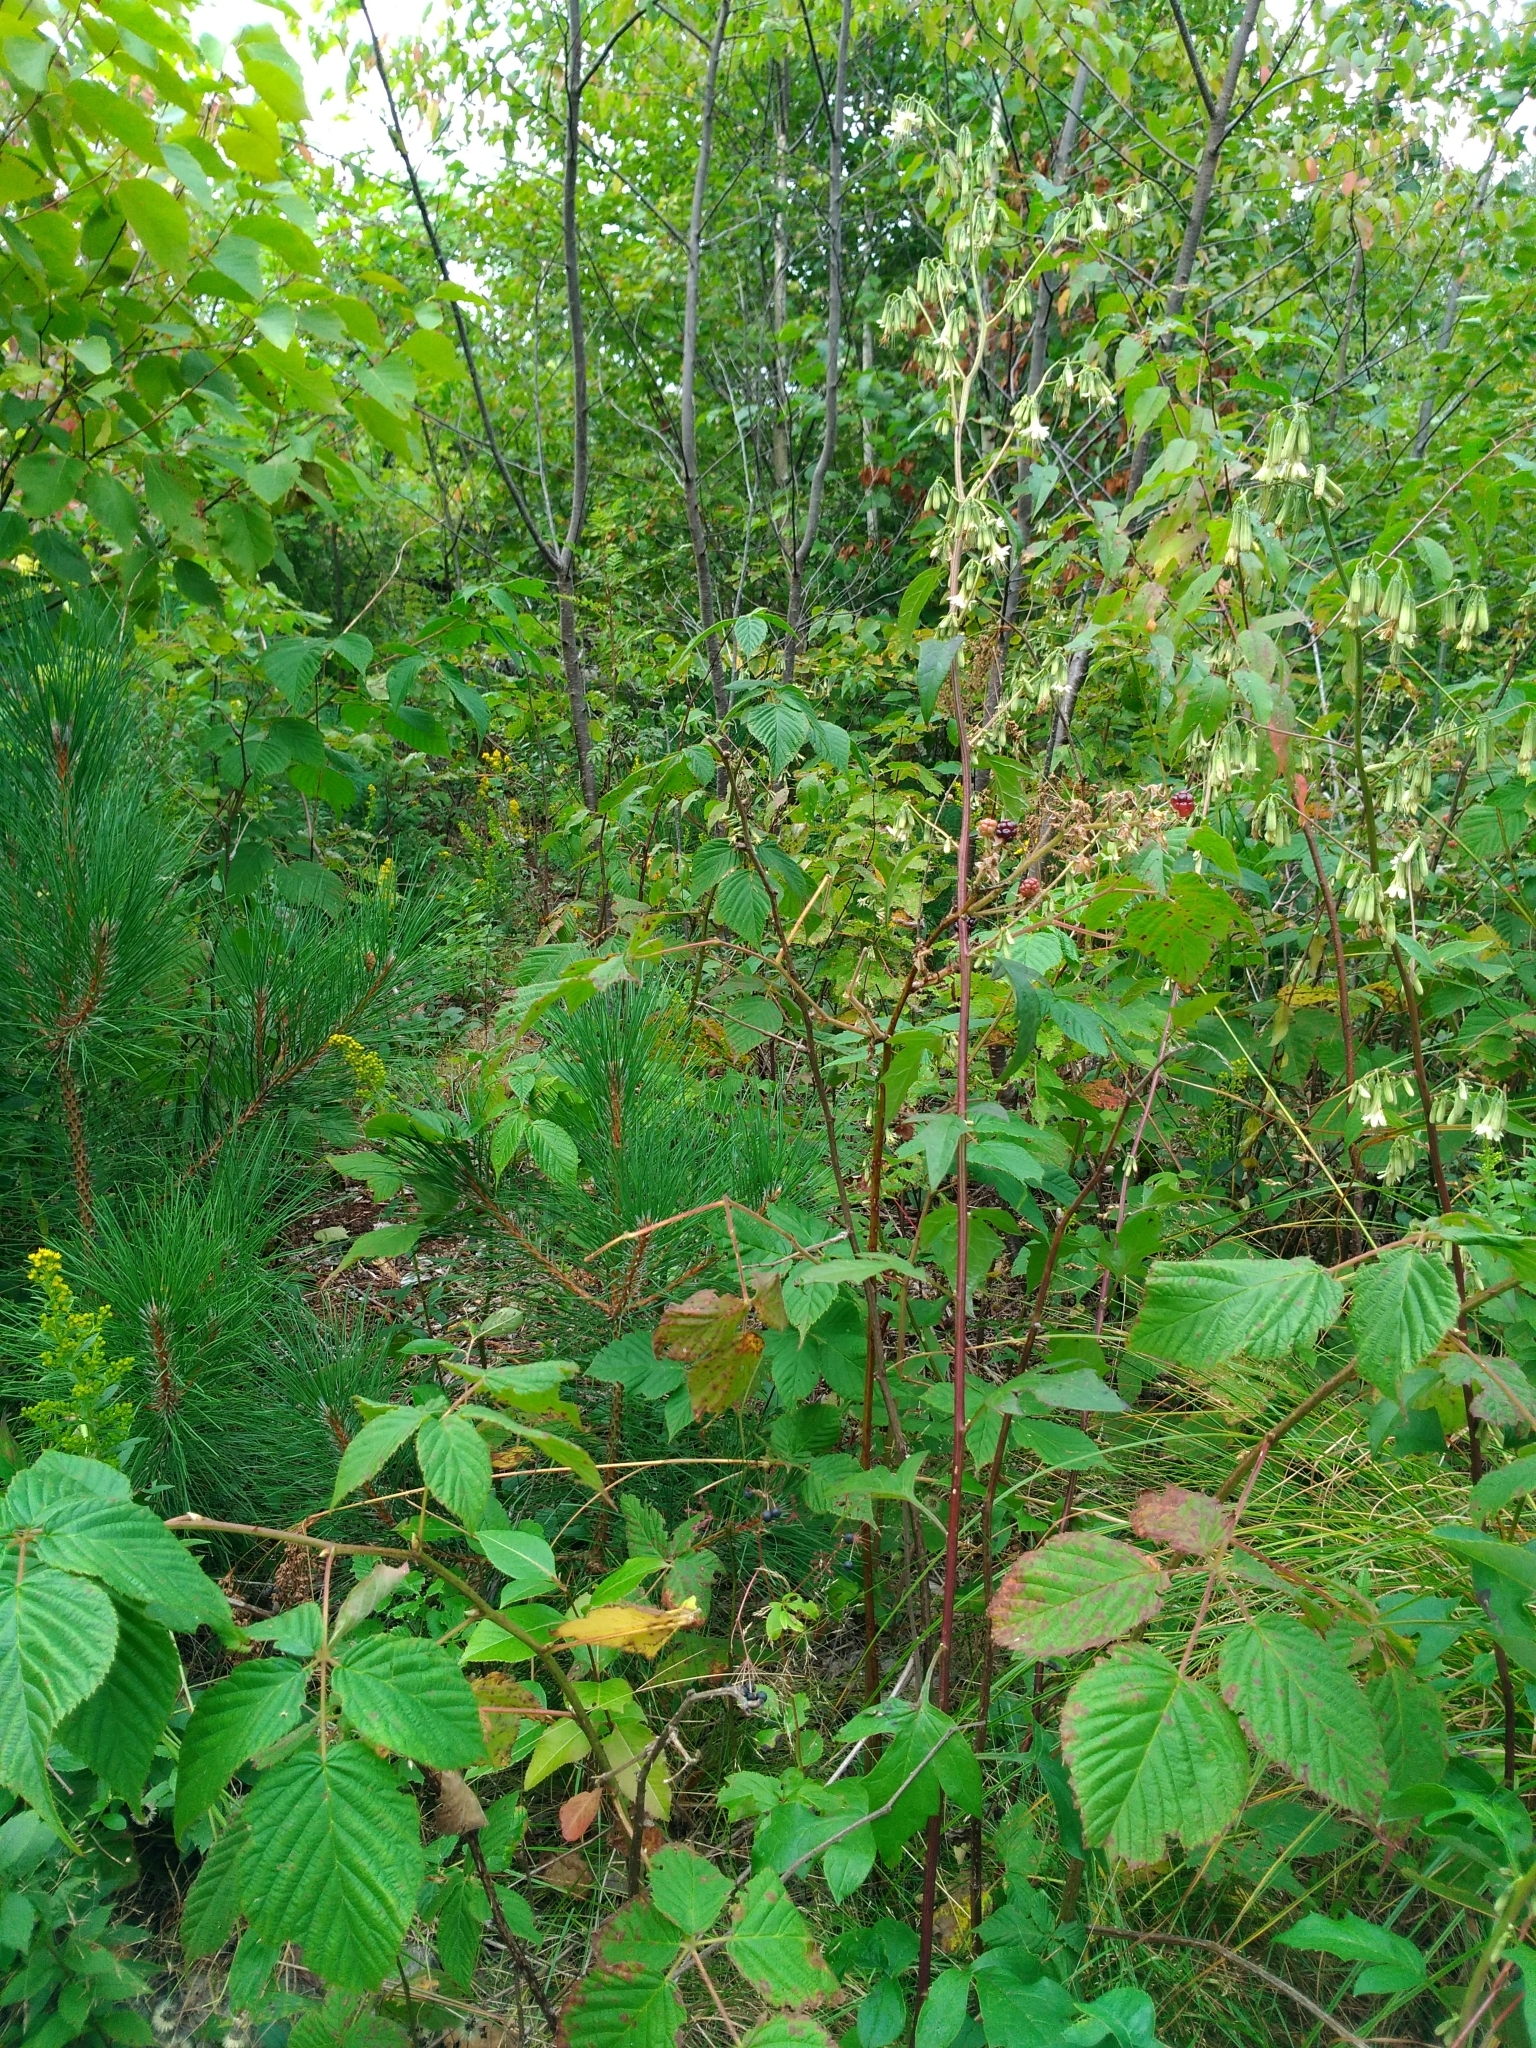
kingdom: Plantae
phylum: Tracheophyta
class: Magnoliopsida
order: Asterales
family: Asteraceae
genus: Nabalus
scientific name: Nabalus trifoliolatus
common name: Gall-of-the-earth
